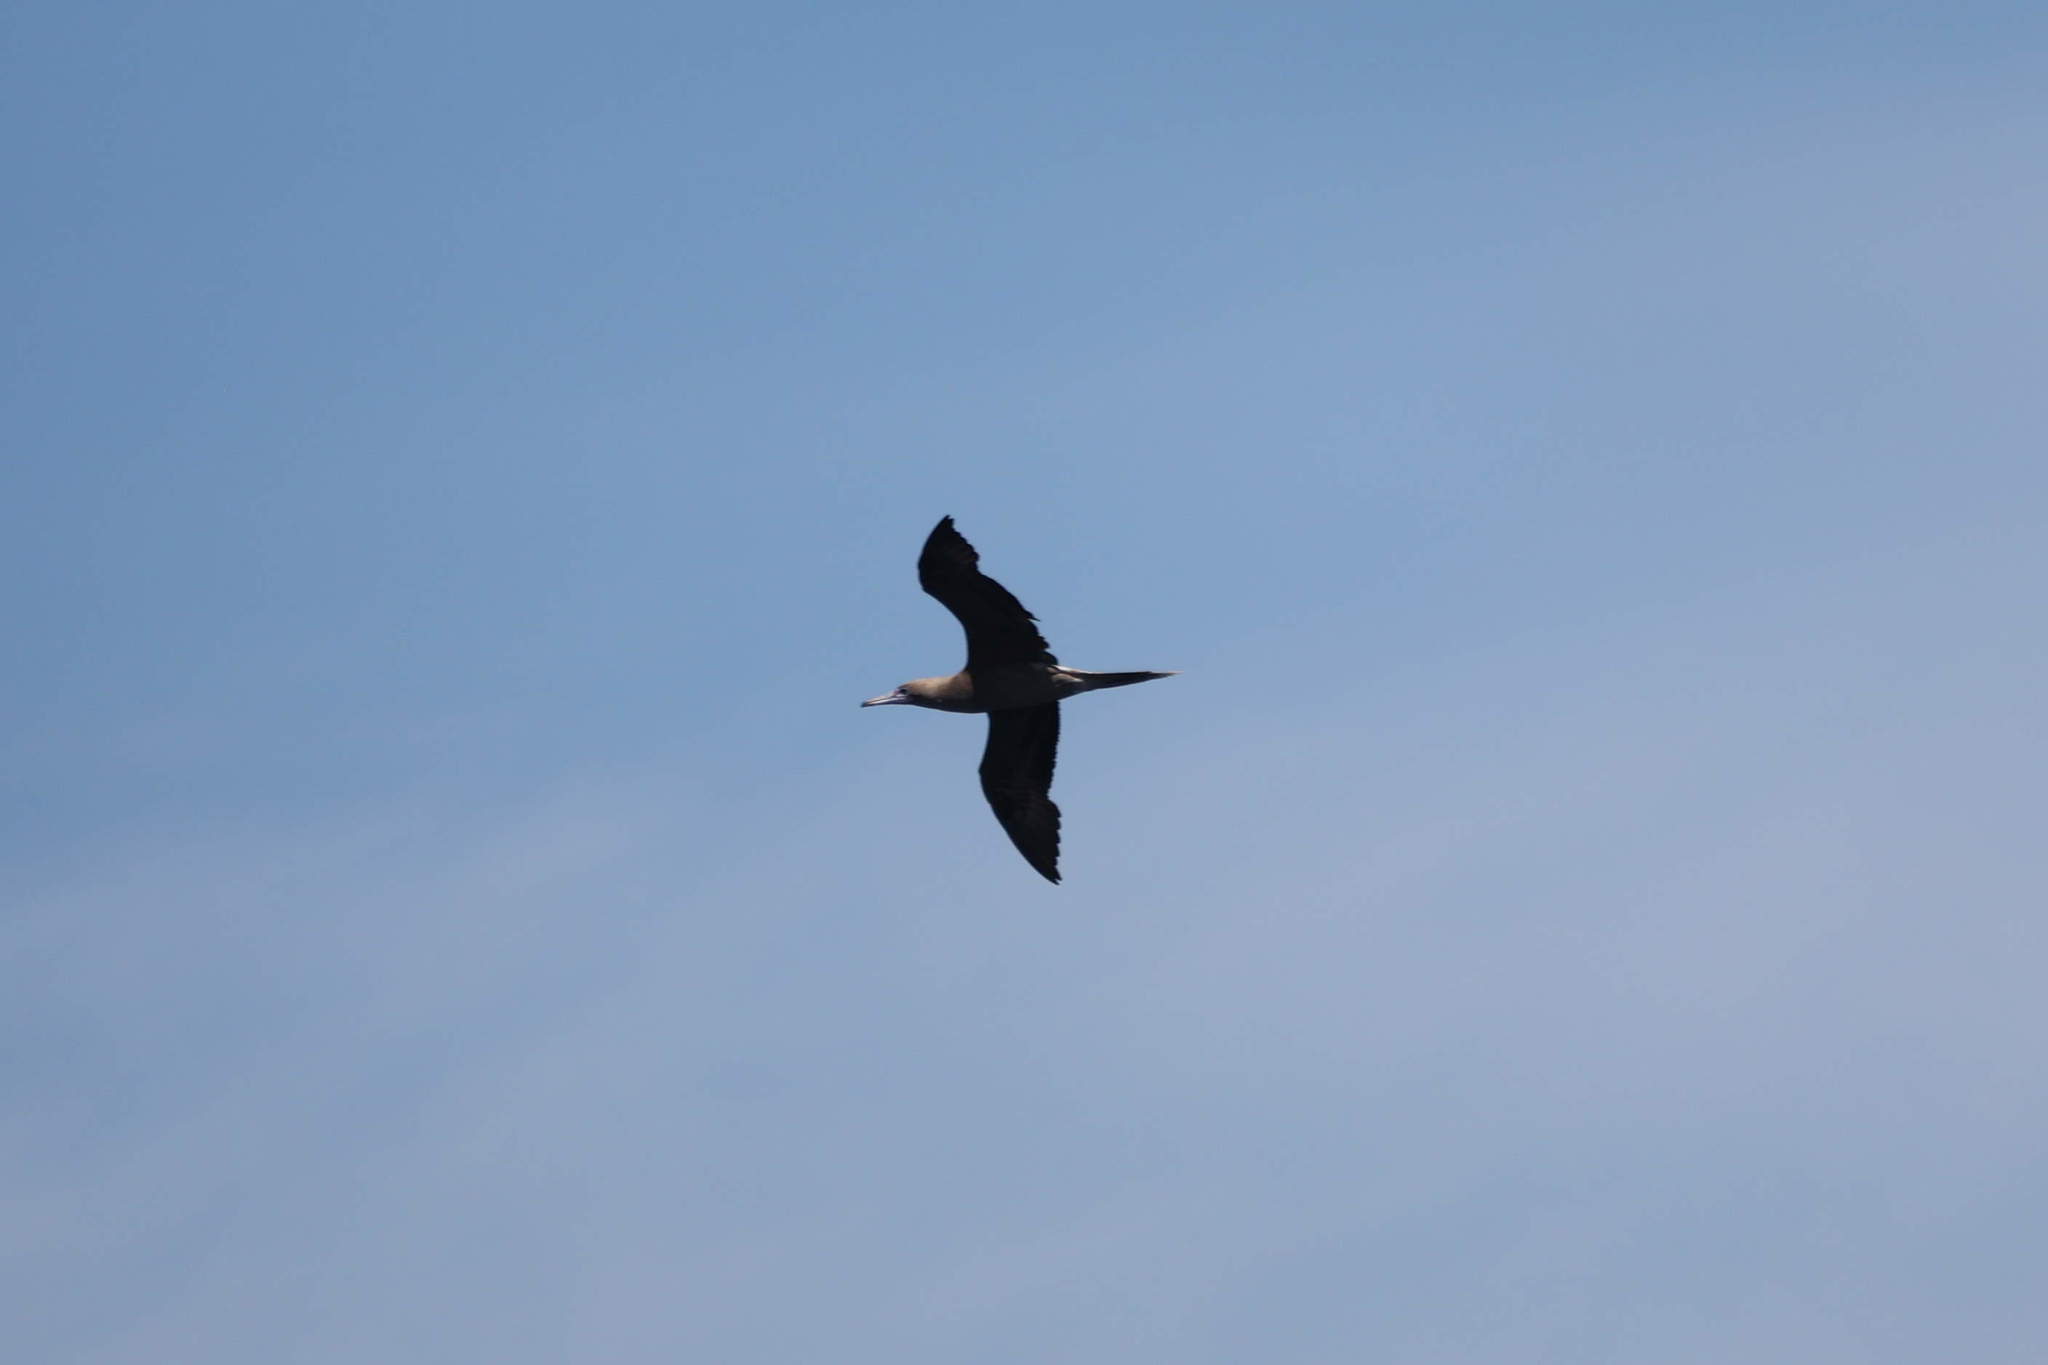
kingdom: Animalia
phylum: Chordata
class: Aves
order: Suliformes
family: Sulidae
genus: Sula
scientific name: Sula sula
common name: Red-footed booby
